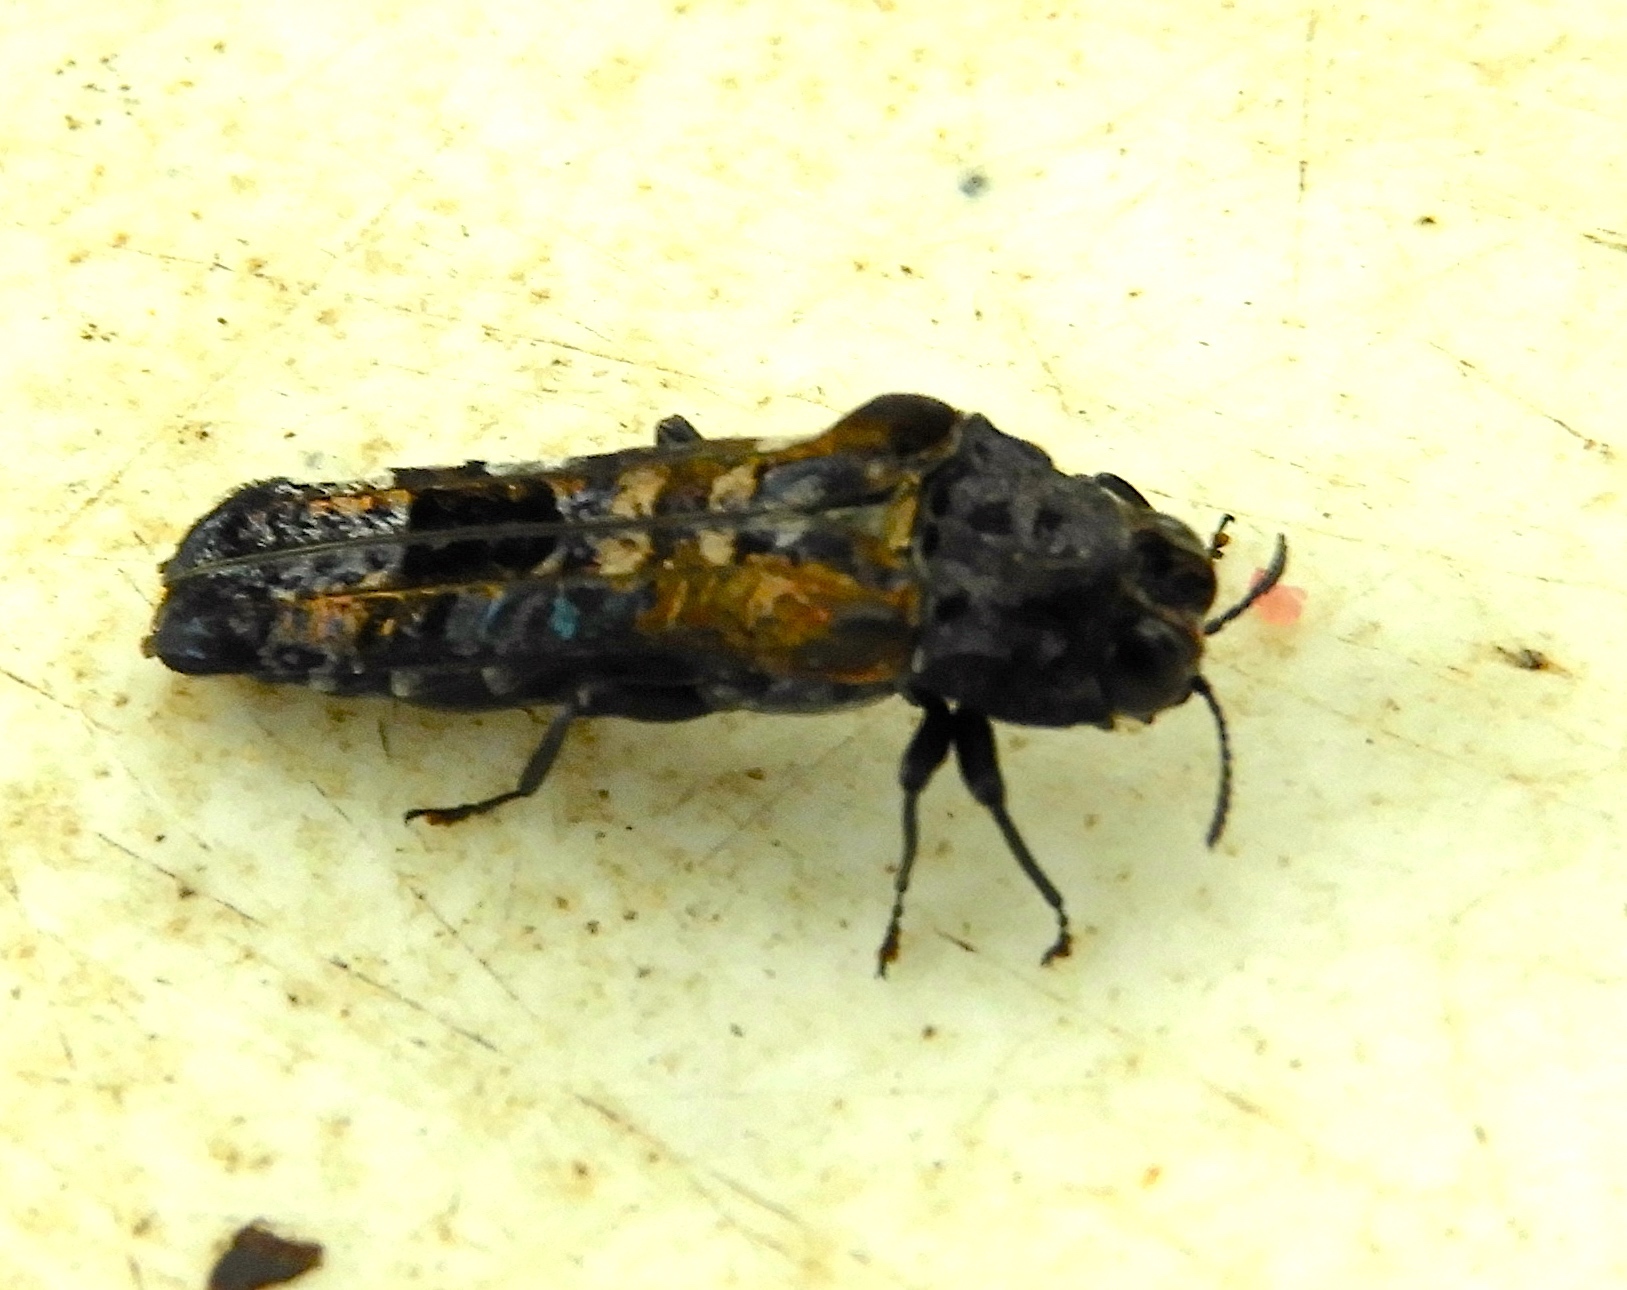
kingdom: Animalia
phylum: Arthropoda
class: Insecta
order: Coleoptera
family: Buprestidae
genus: Omochyseus
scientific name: Omochyseus terminalis
